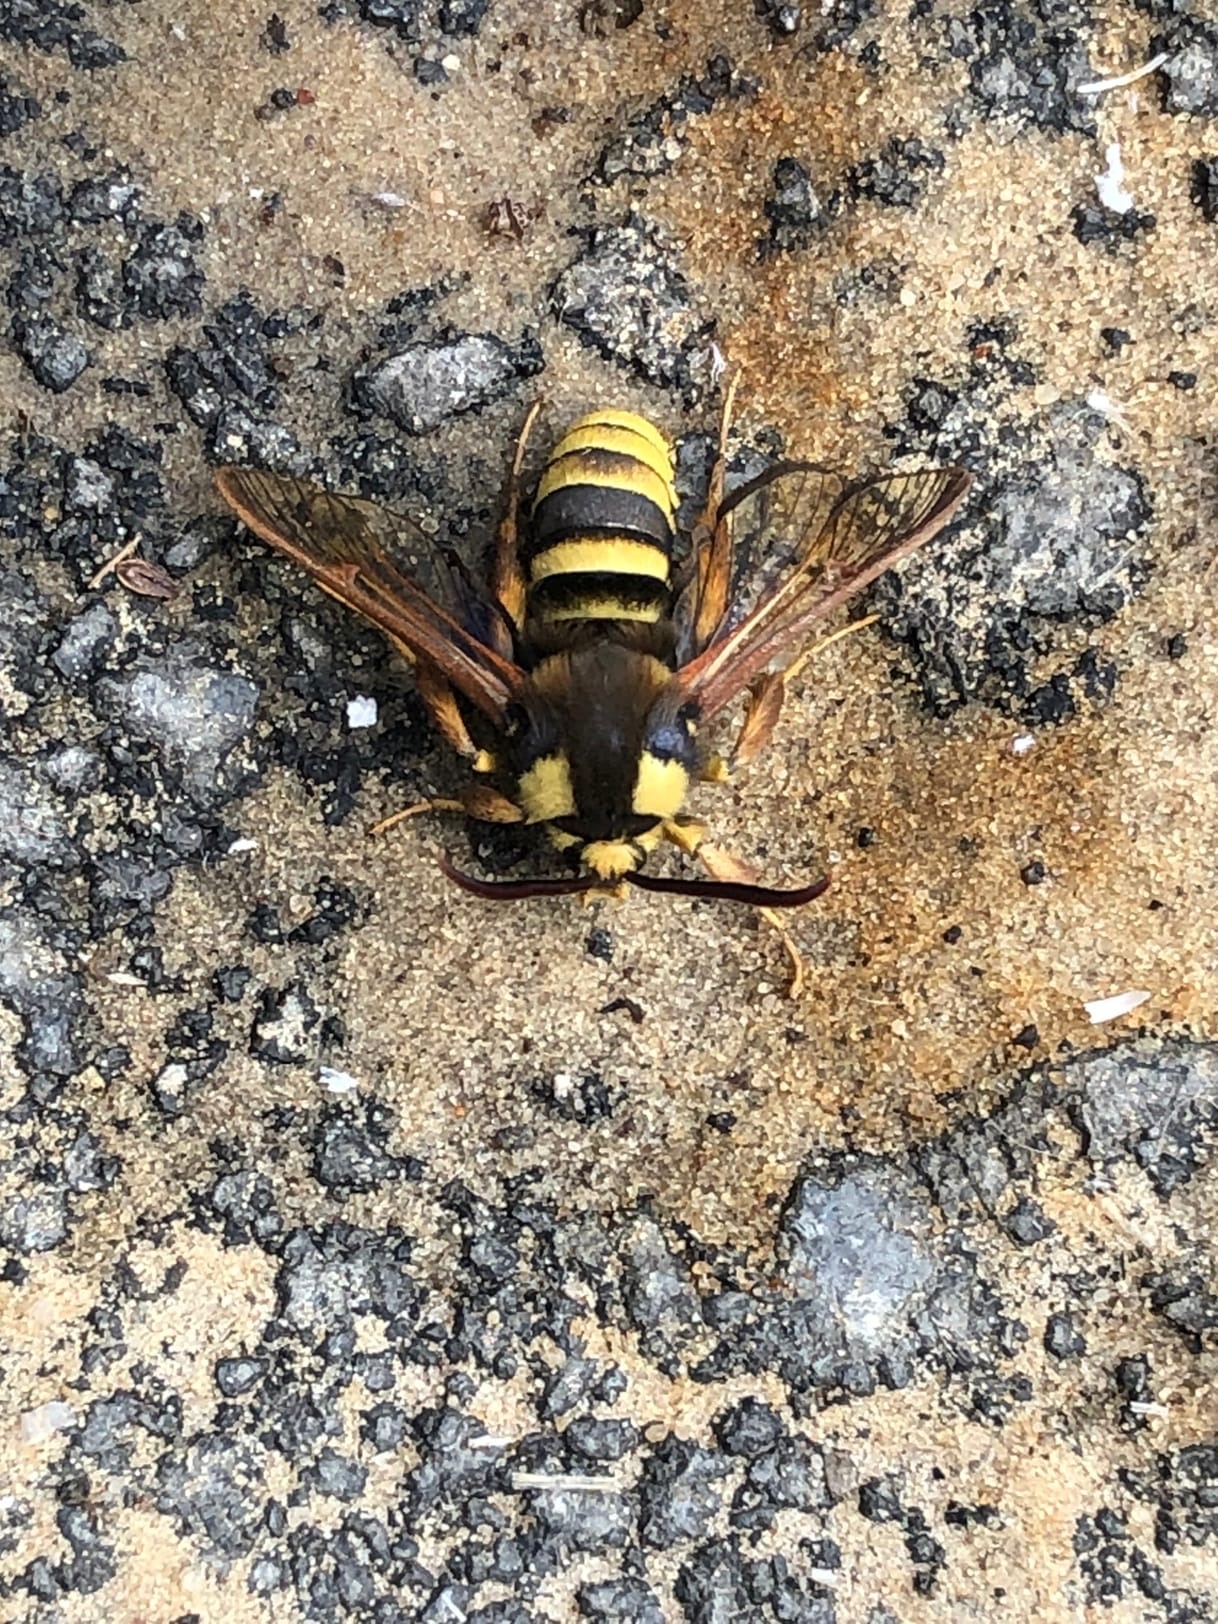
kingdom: Animalia
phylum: Arthropoda
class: Insecta
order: Lepidoptera
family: Sesiidae
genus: Sesia
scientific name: Sesia apiformis
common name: Hornet moth
